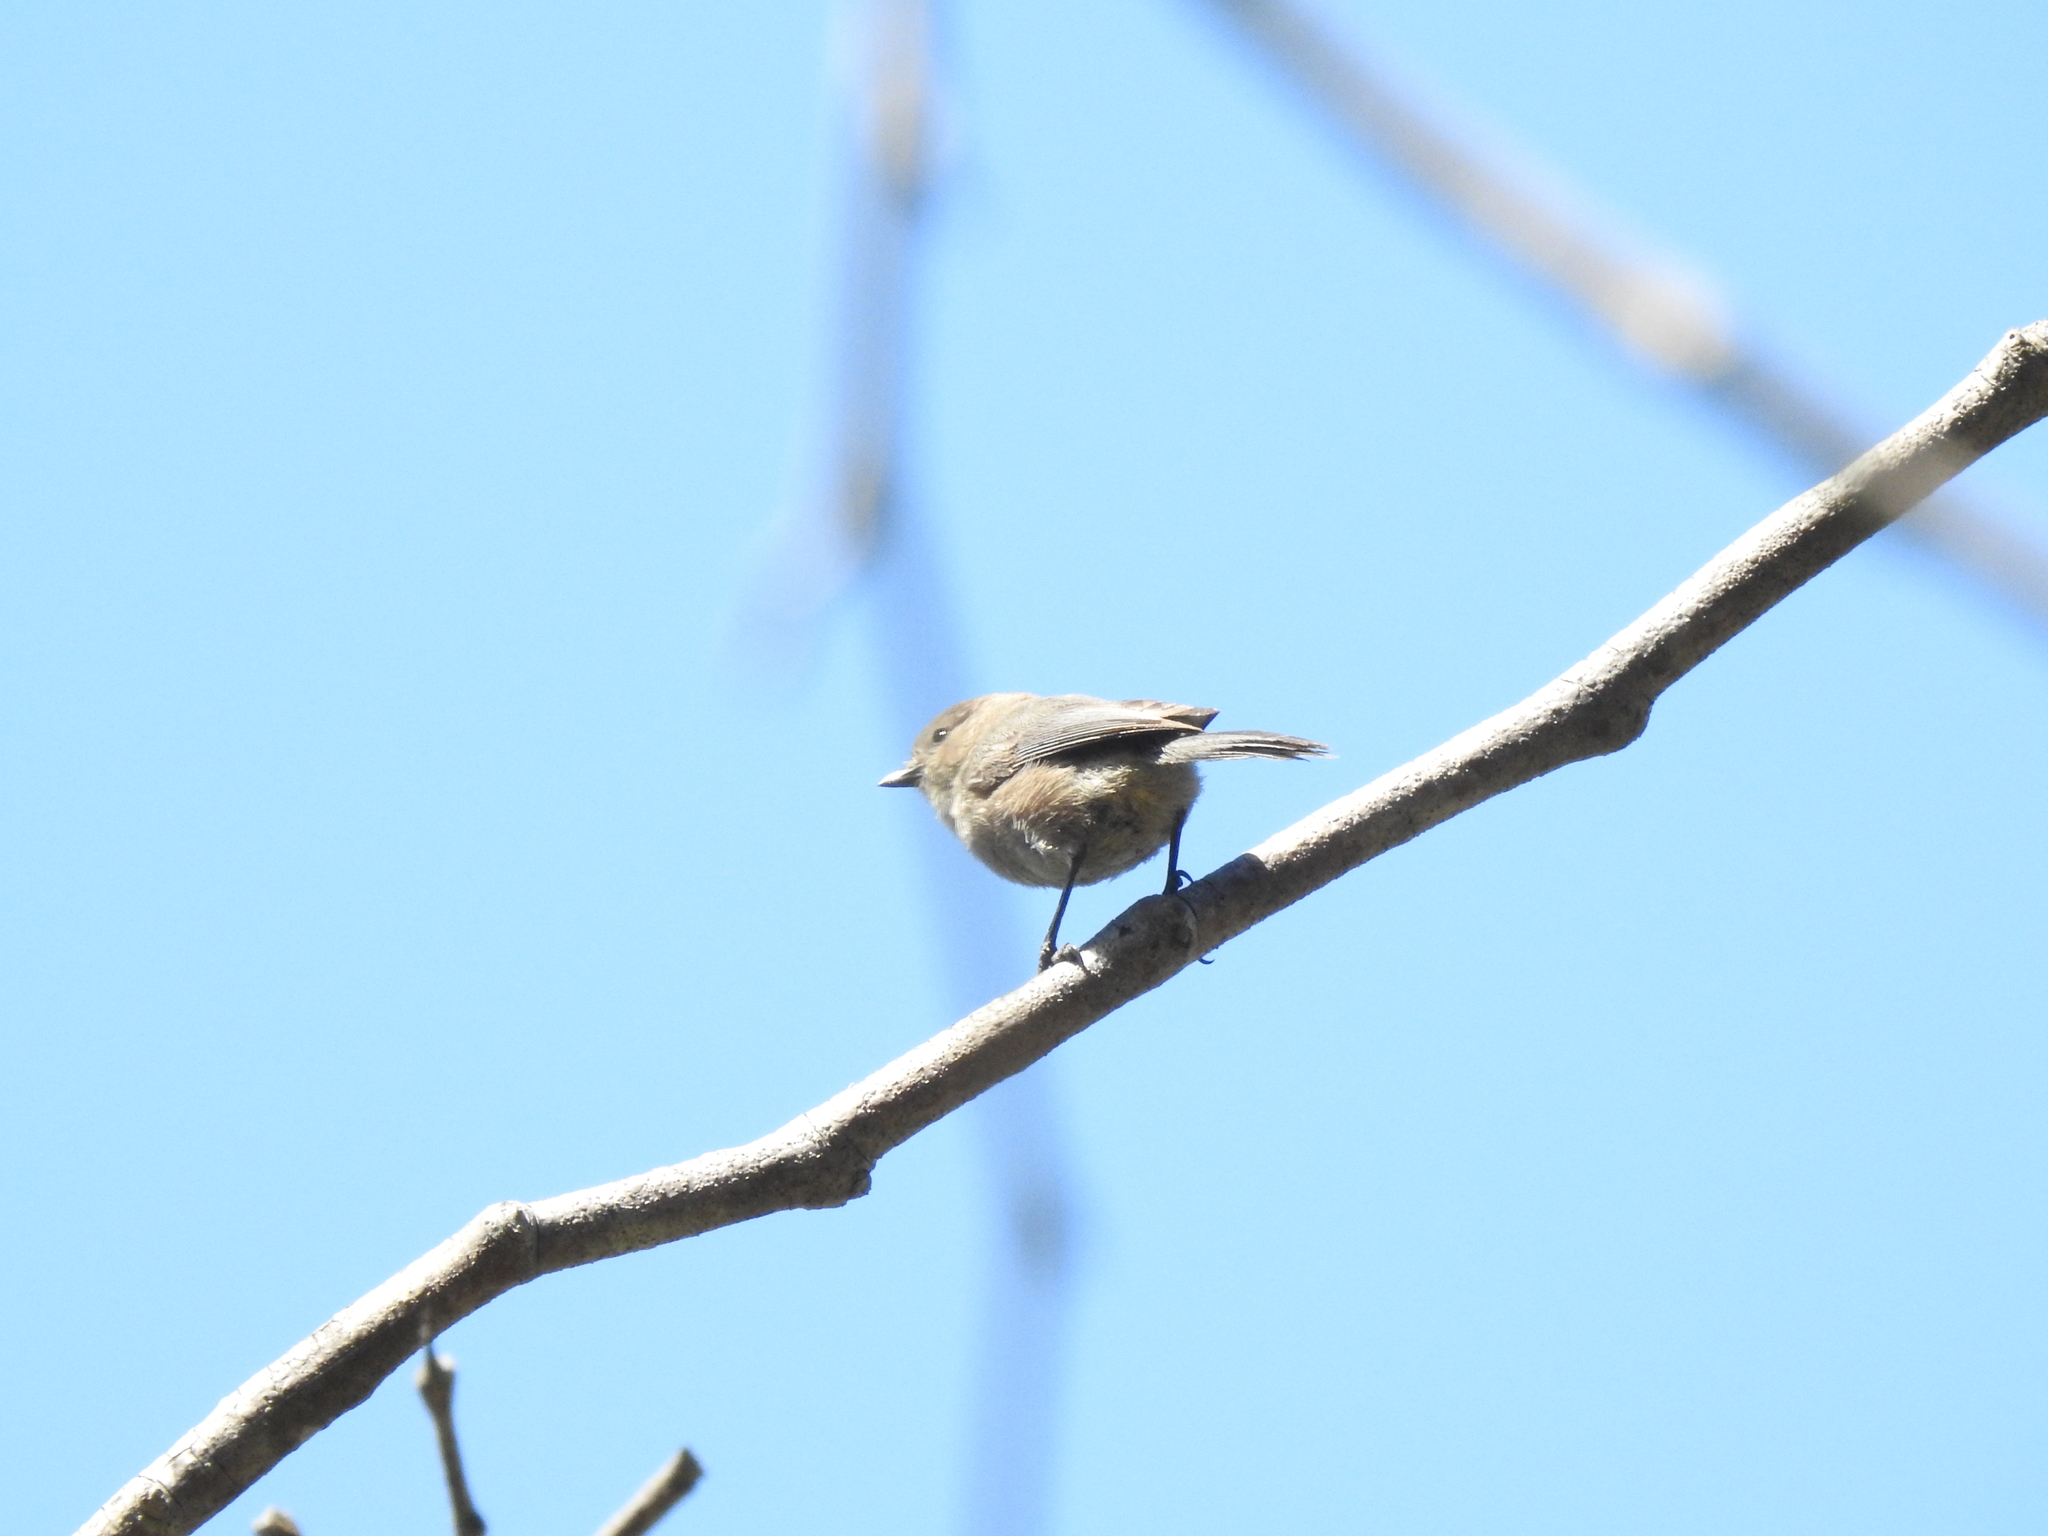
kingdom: Animalia
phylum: Chordata
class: Aves
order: Passeriformes
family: Aegithalidae
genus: Psaltriparus
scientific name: Psaltriparus minimus
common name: American bushtit
